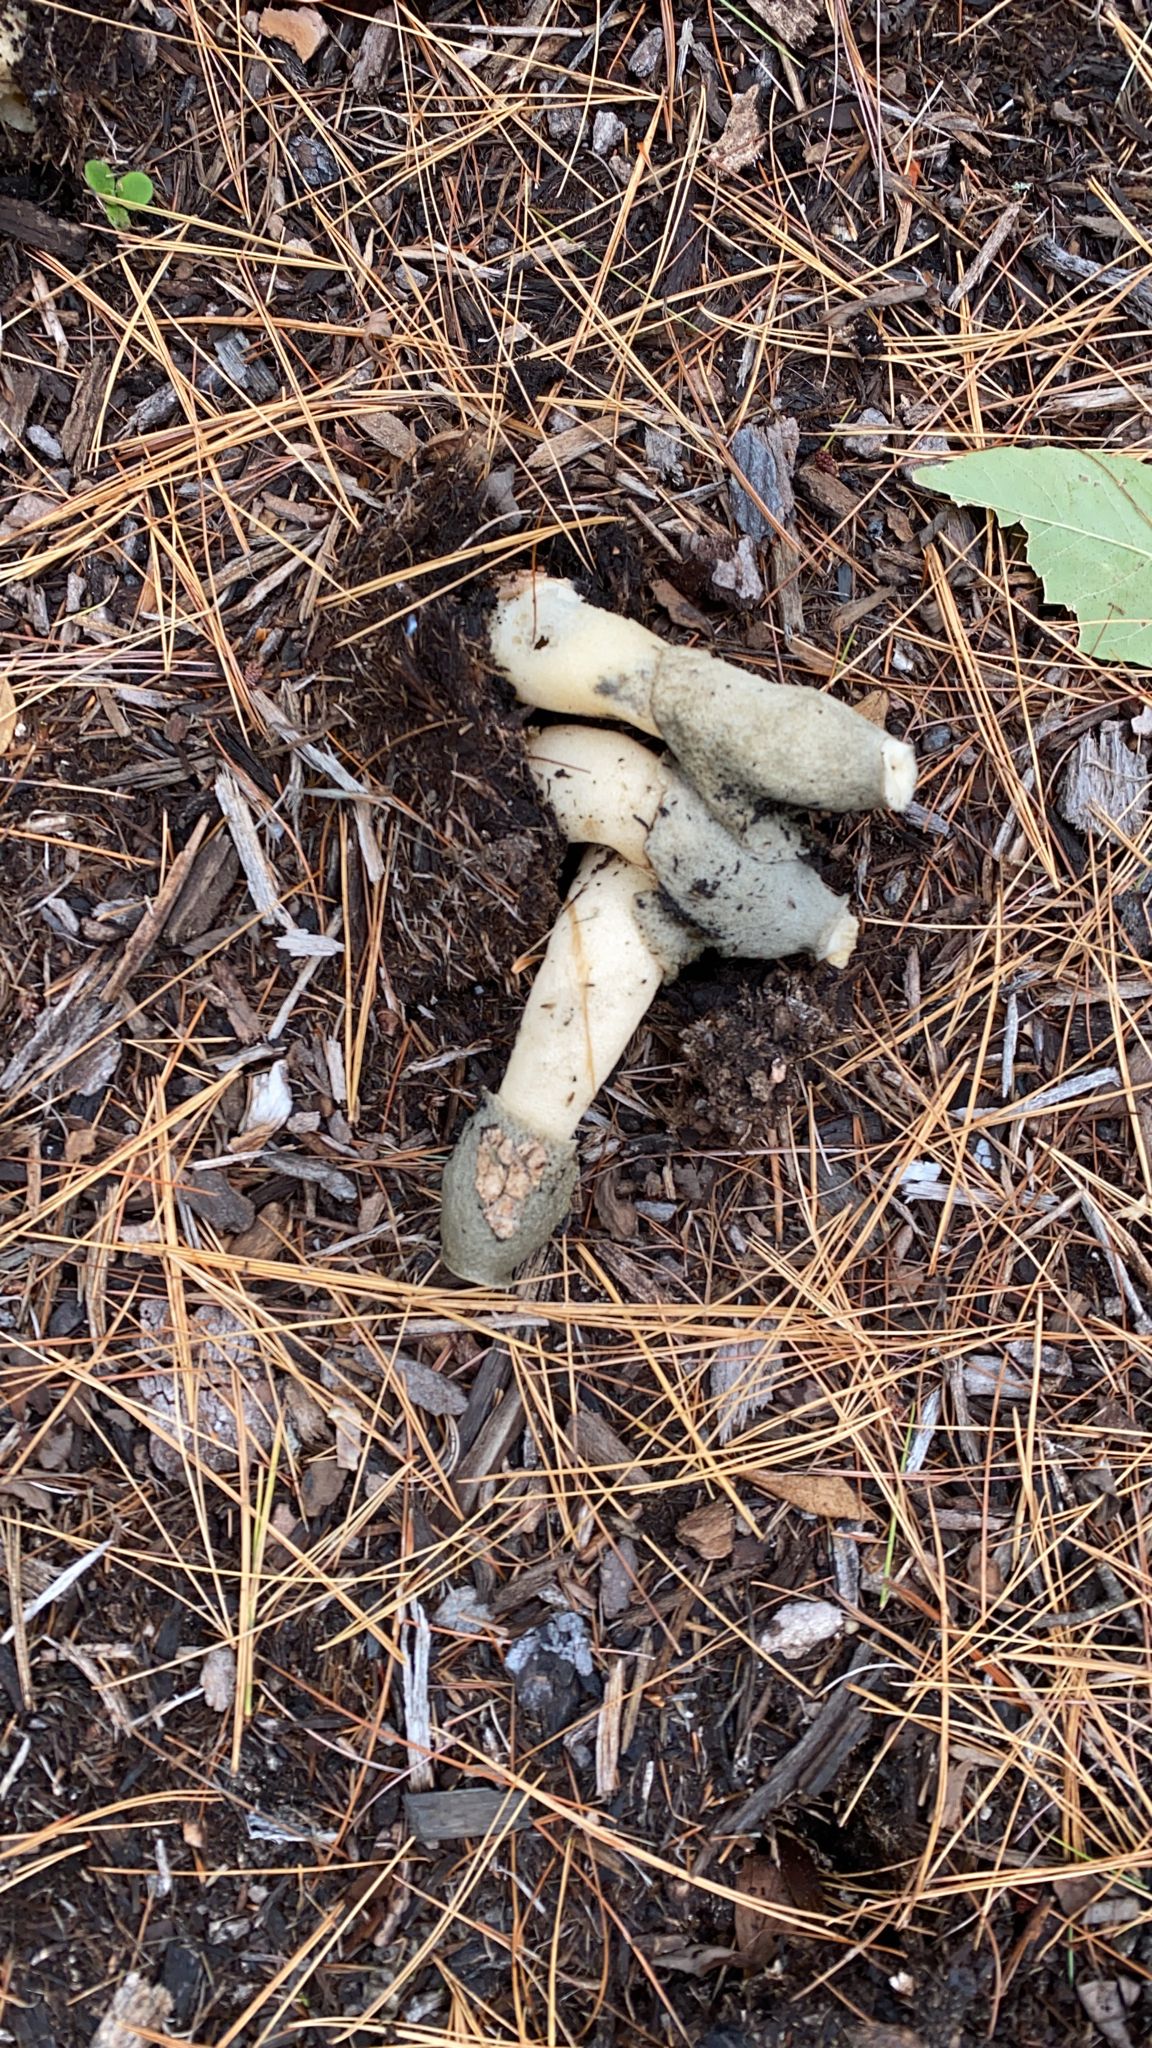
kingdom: Fungi
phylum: Basidiomycota
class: Agaricomycetes
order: Phallales
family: Phallaceae
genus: Phallus
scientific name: Phallus ravenelii
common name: Ravenel's stinkhorn
